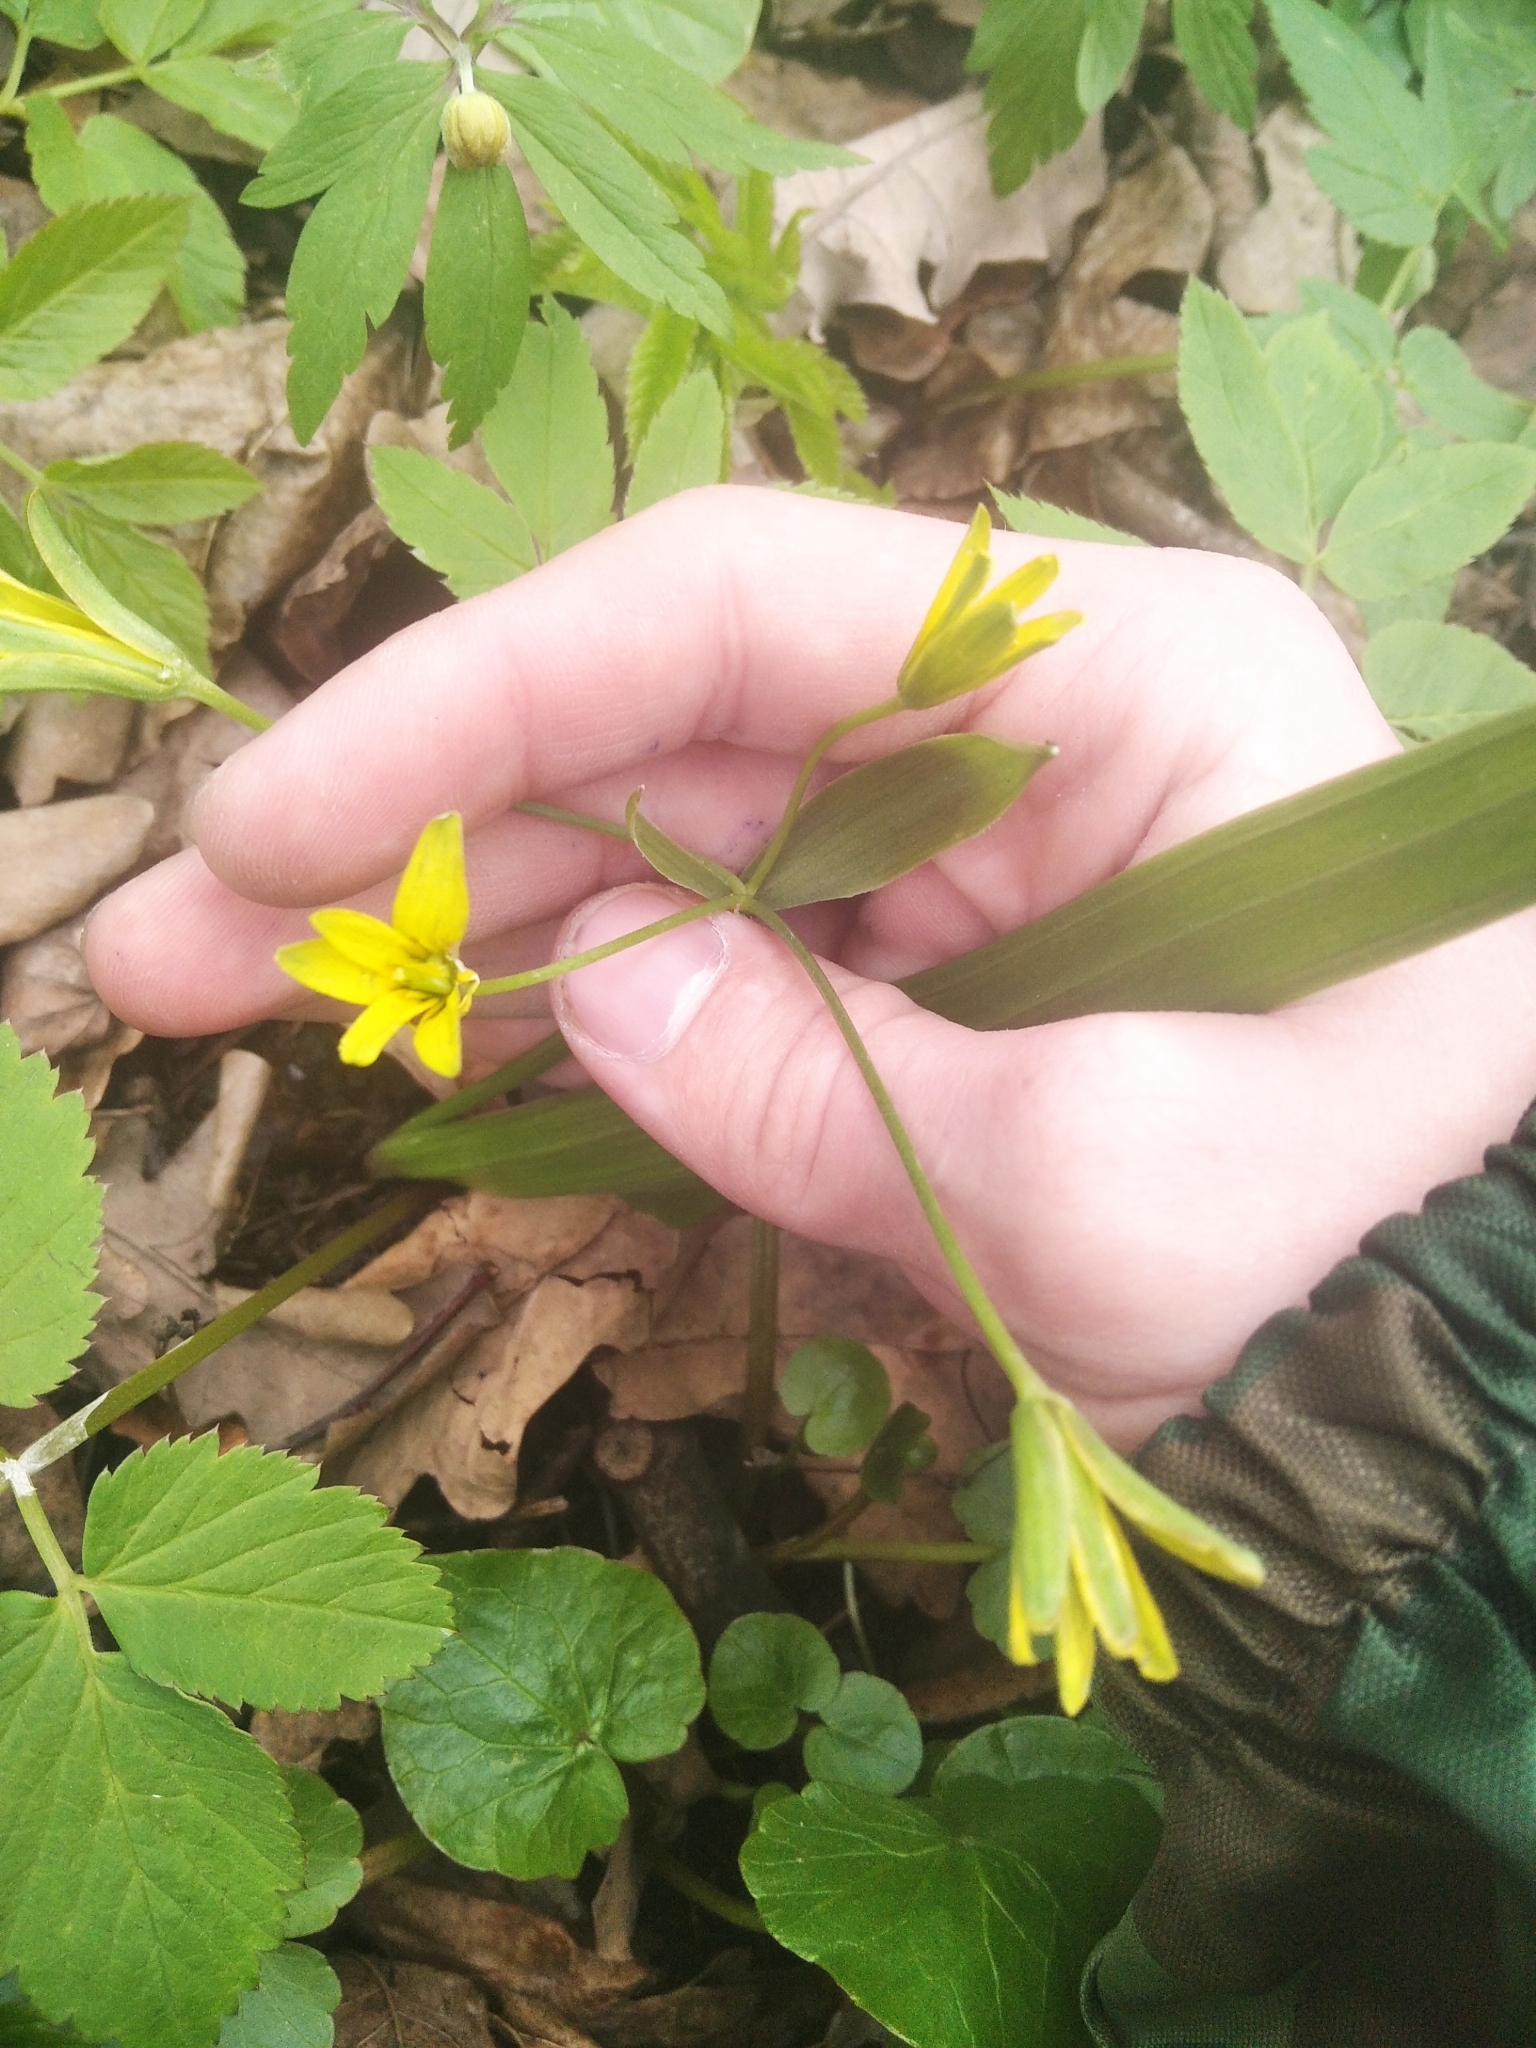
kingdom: Plantae
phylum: Tracheophyta
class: Liliopsida
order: Liliales
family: Liliaceae
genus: Gagea
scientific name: Gagea lutea
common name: Yellow star-of-bethlehem
